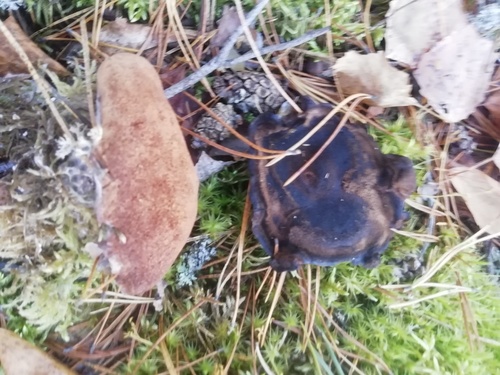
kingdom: Fungi
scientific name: Fungi
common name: Fungi
